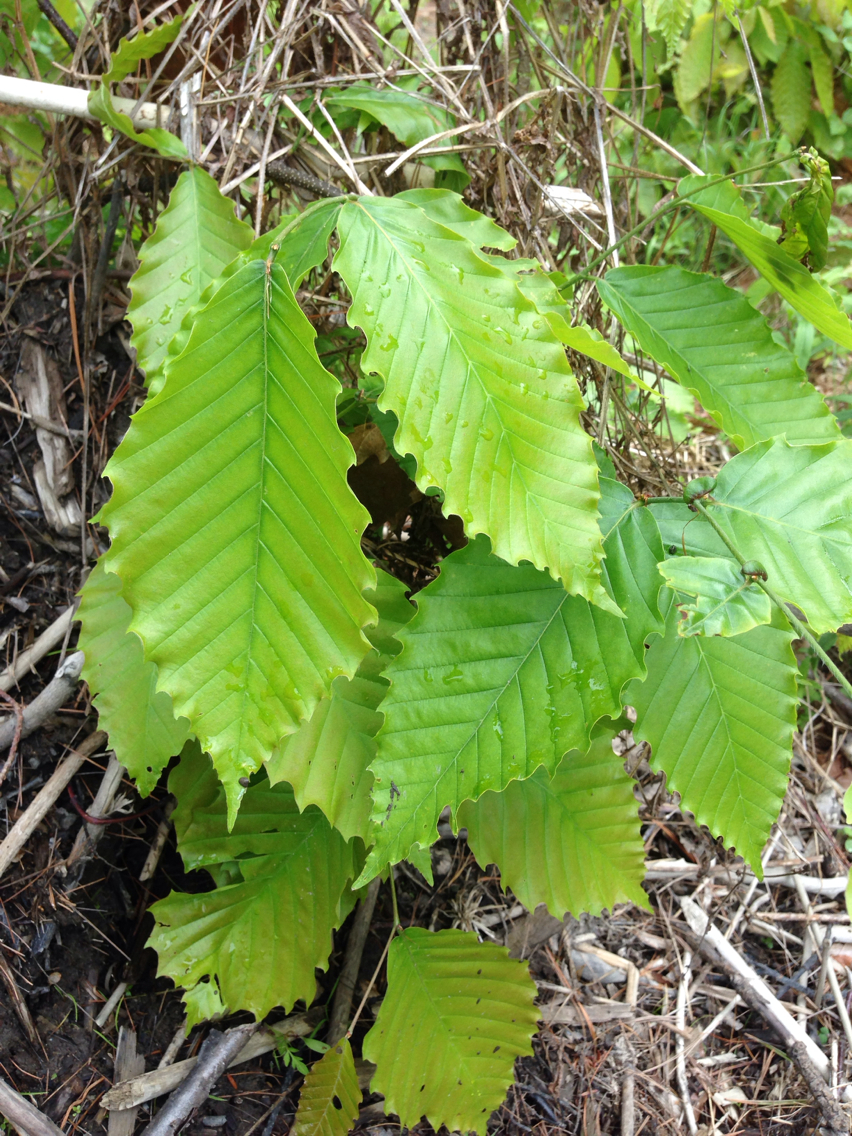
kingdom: Plantae
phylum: Tracheophyta
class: Magnoliopsida
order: Fagales
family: Fagaceae
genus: Fagus
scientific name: Fagus grandifolia
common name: American beech
